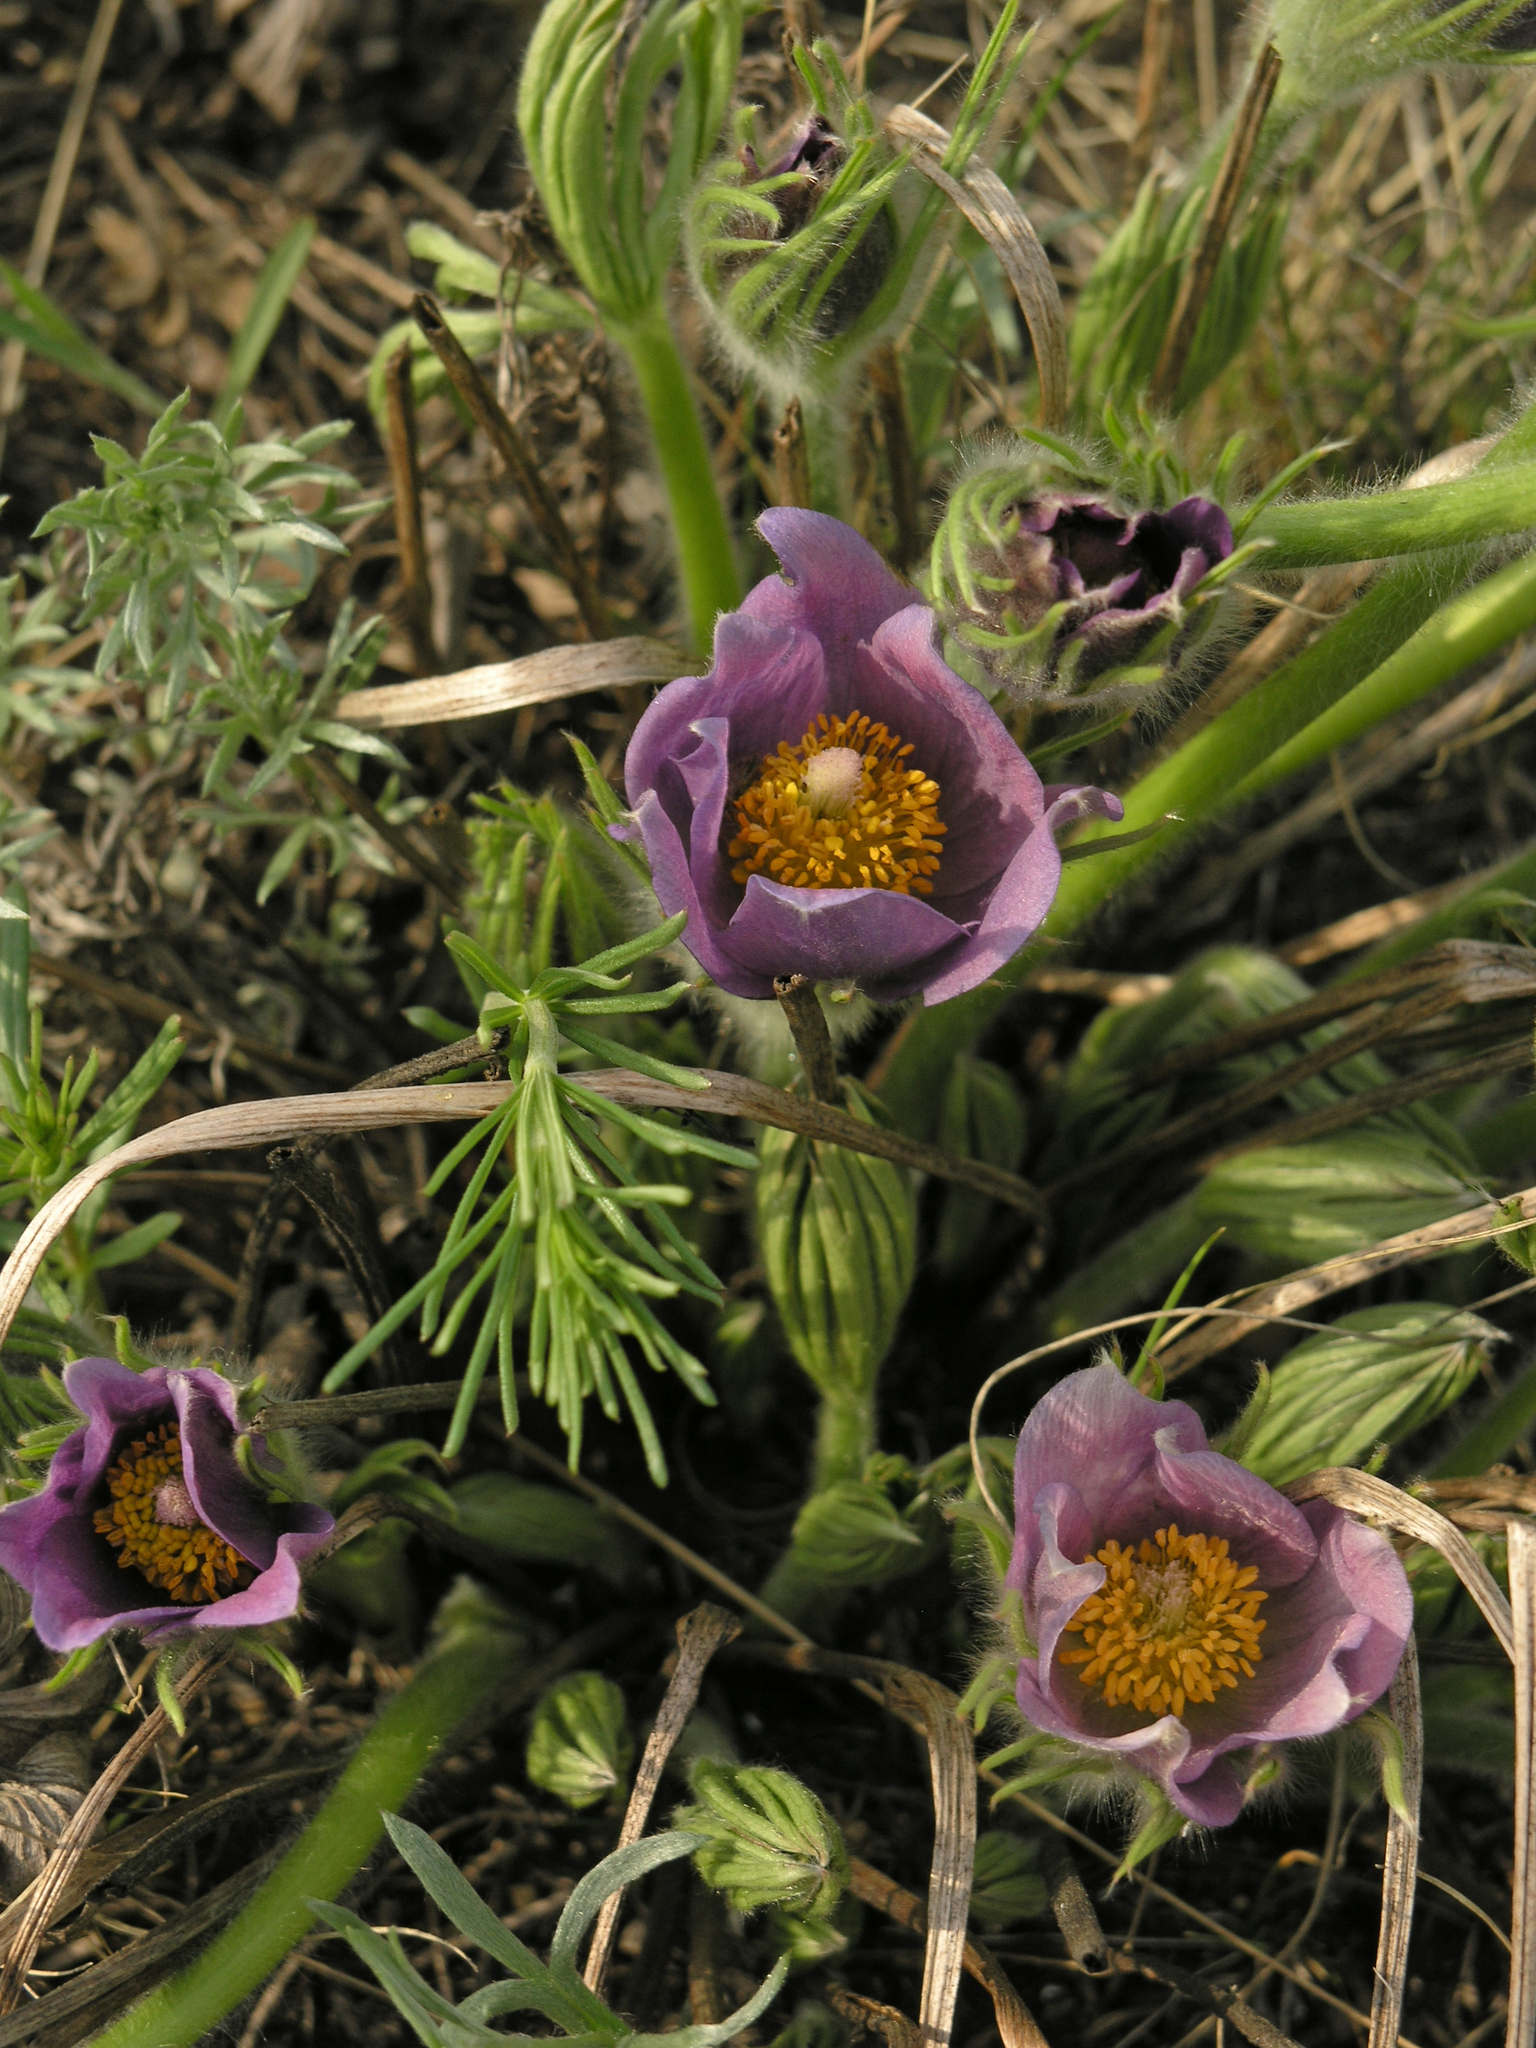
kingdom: Plantae
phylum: Tracheophyta
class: Magnoliopsida
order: Ranunculales
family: Ranunculaceae
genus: Pulsatilla
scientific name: Pulsatilla patens
